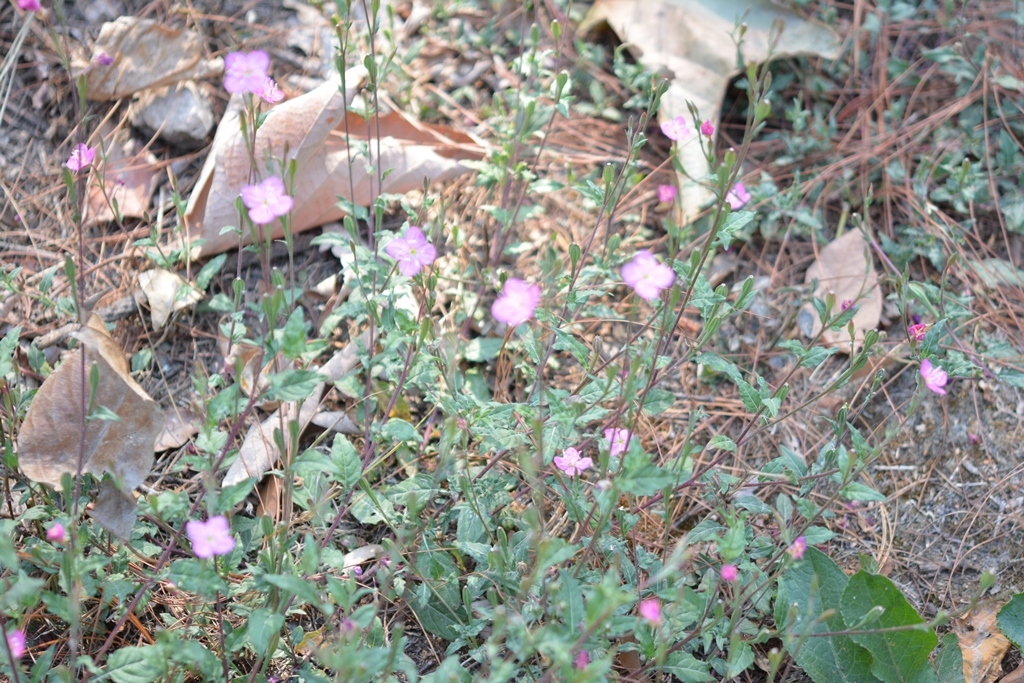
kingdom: Plantae
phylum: Tracheophyta
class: Magnoliopsida
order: Myrtales
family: Onagraceae
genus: Oenothera
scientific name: Oenothera rosea
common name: Rosy evening-primrose
